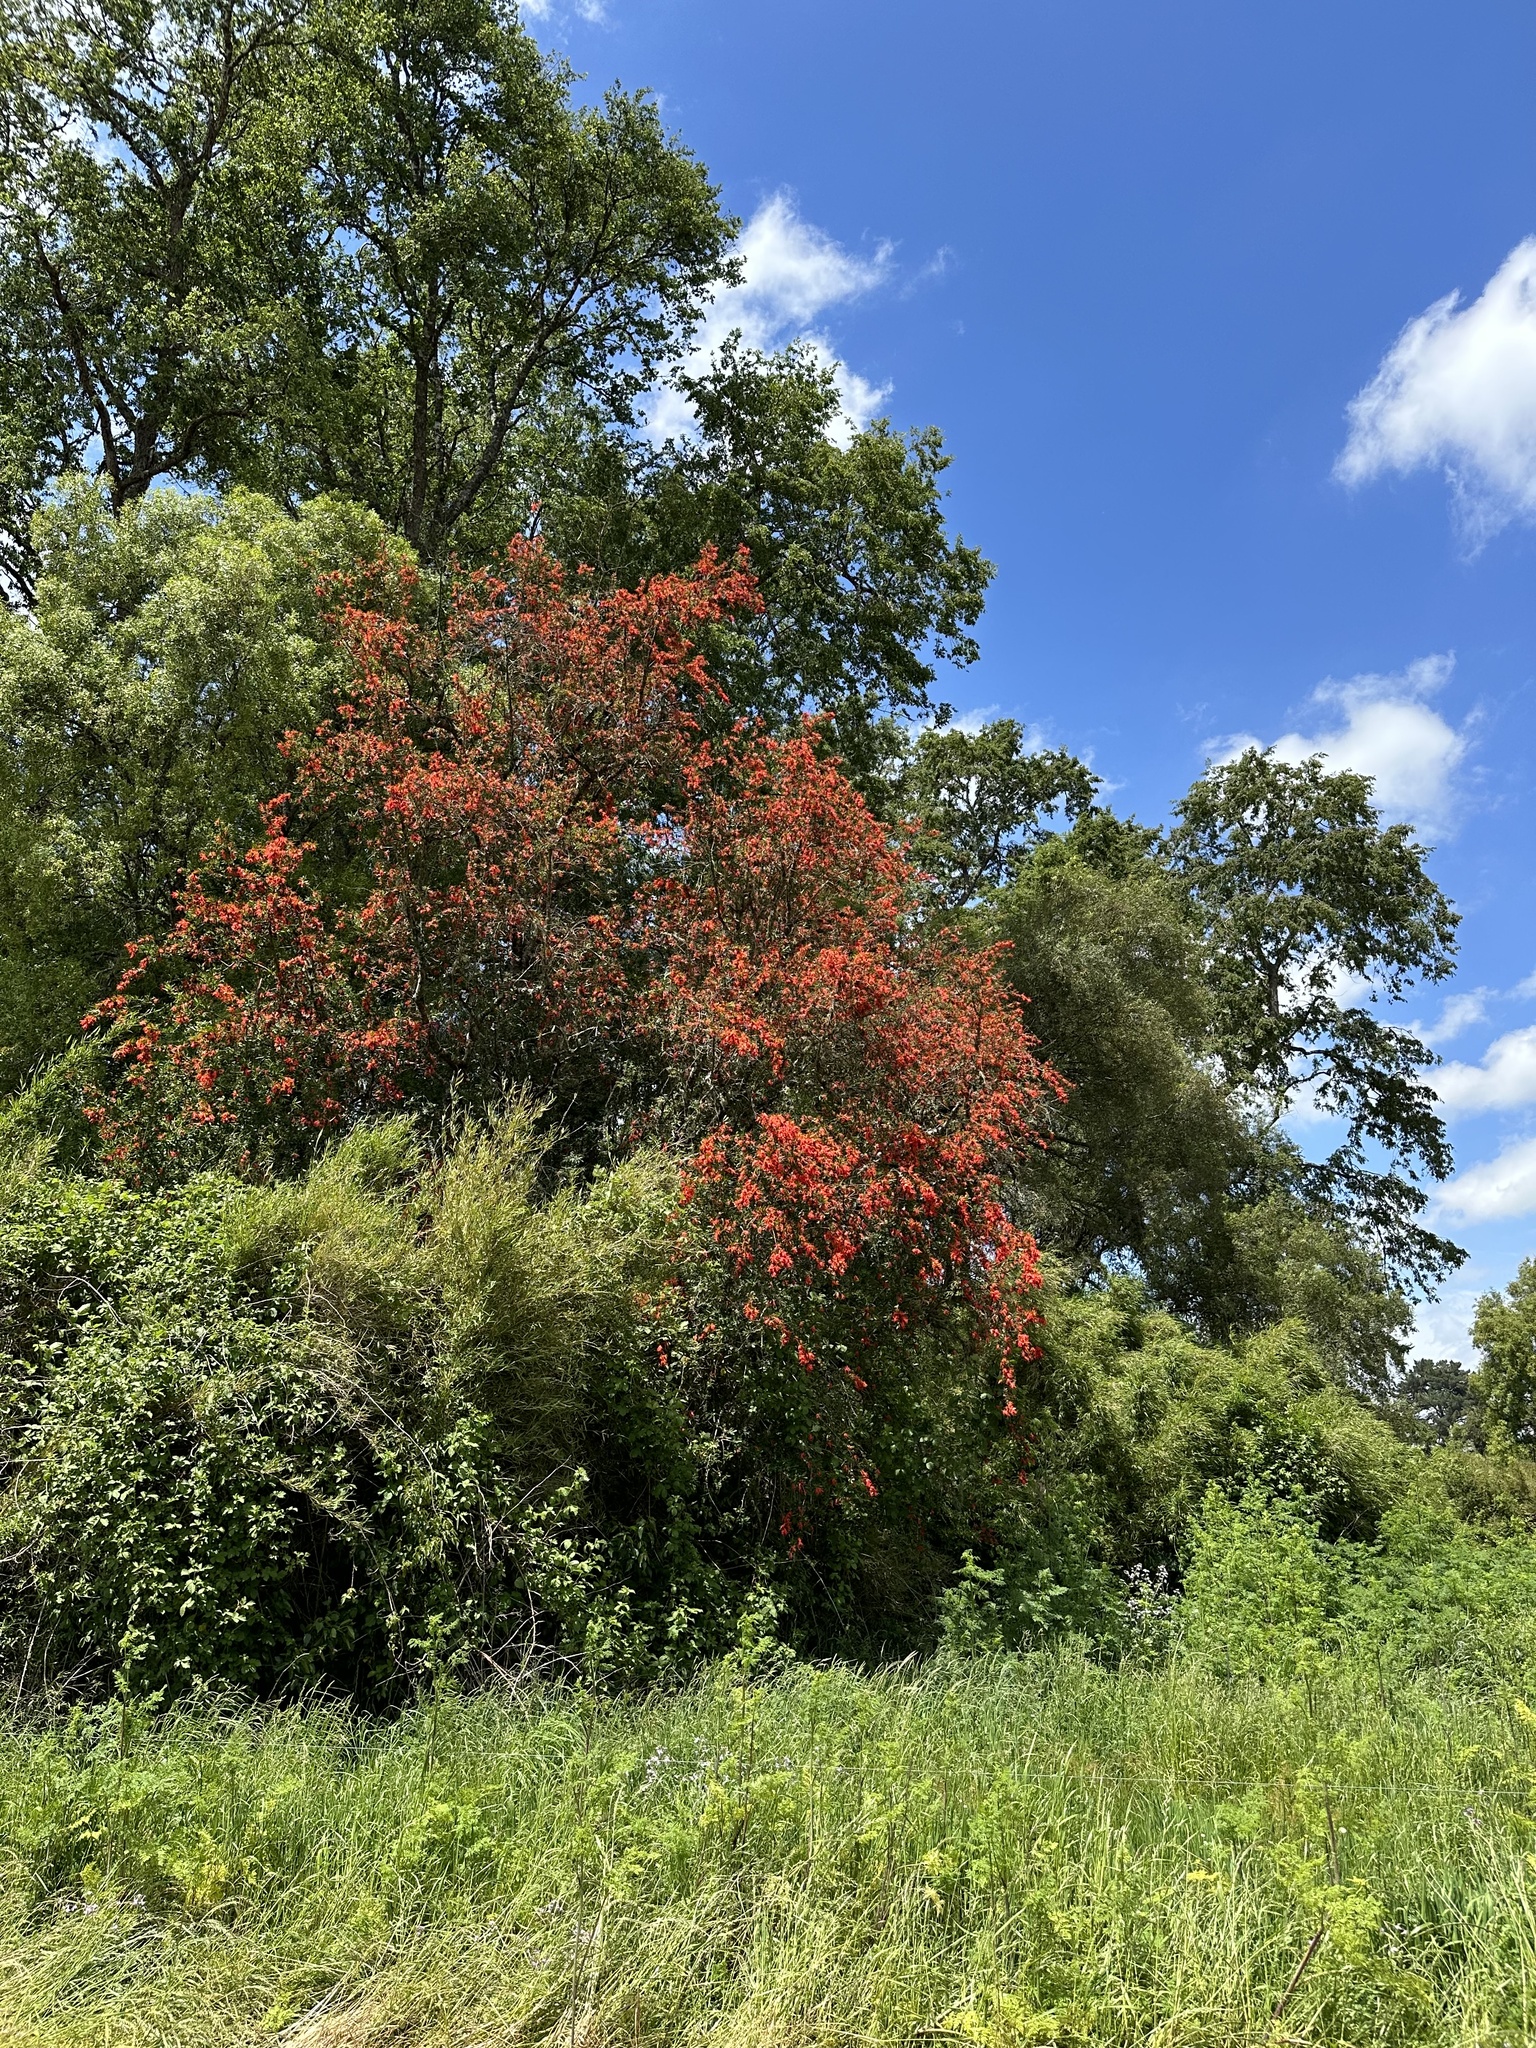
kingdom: Plantae
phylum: Tracheophyta
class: Magnoliopsida
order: Proteales
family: Proteaceae
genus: Embothrium
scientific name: Embothrium coccineum
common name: Chilean firebush
